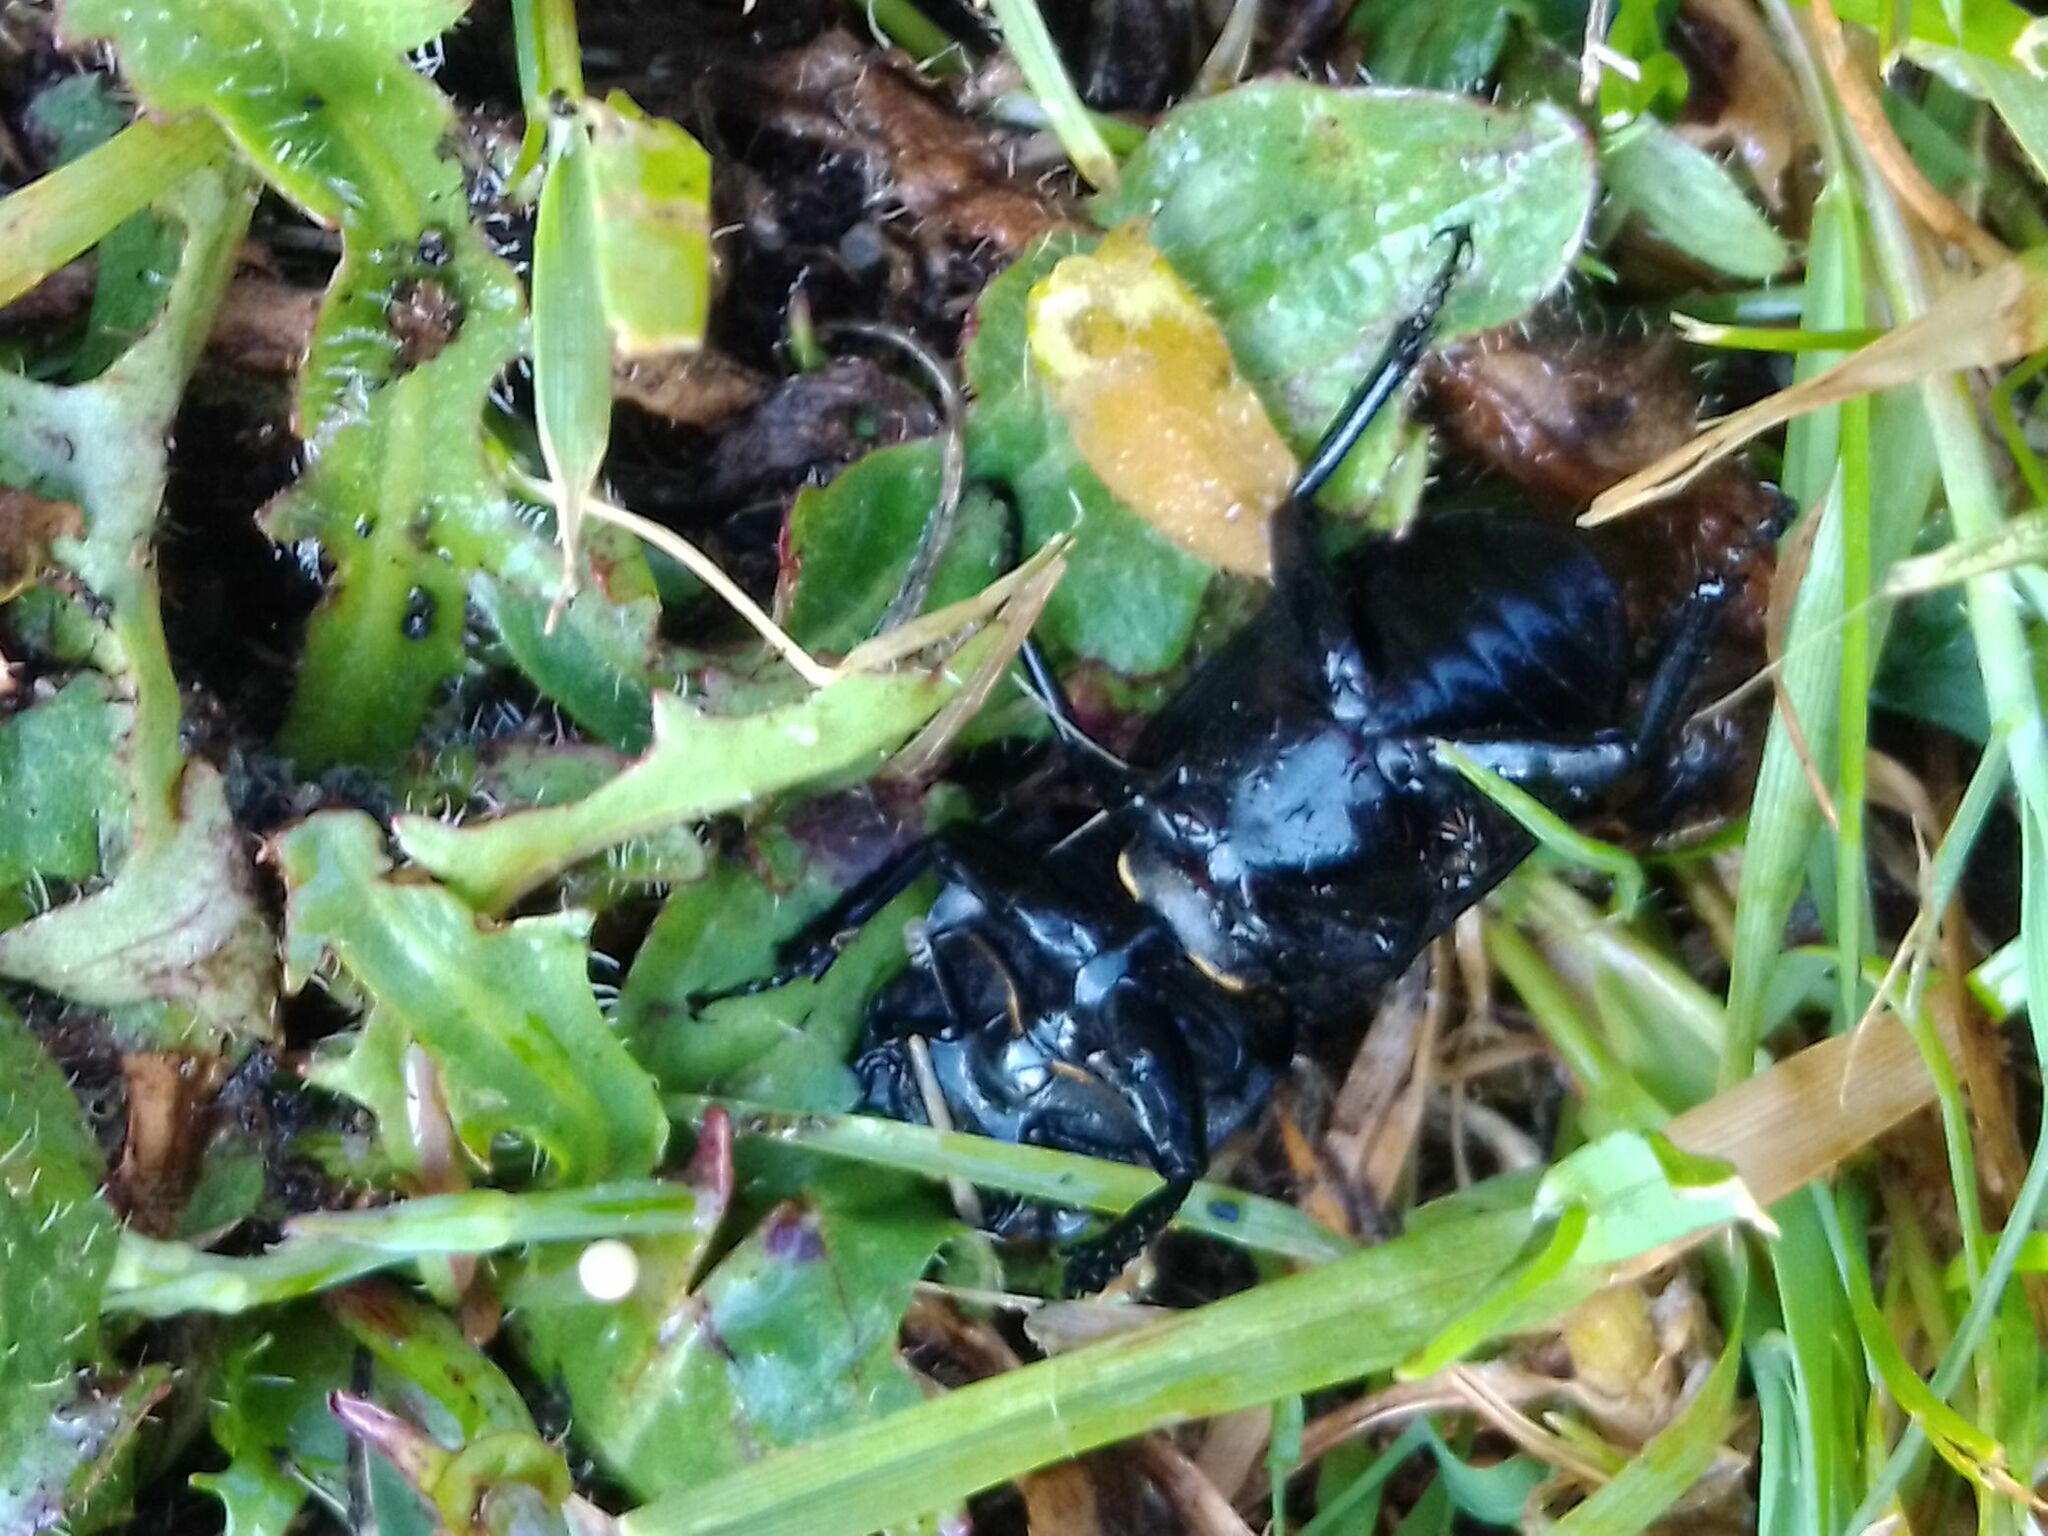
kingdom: Animalia
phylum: Arthropoda
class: Insecta
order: Coleoptera
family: Lucanidae
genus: Dorcus
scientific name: Dorcus parallelipipedus
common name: Lesser stag beetle
